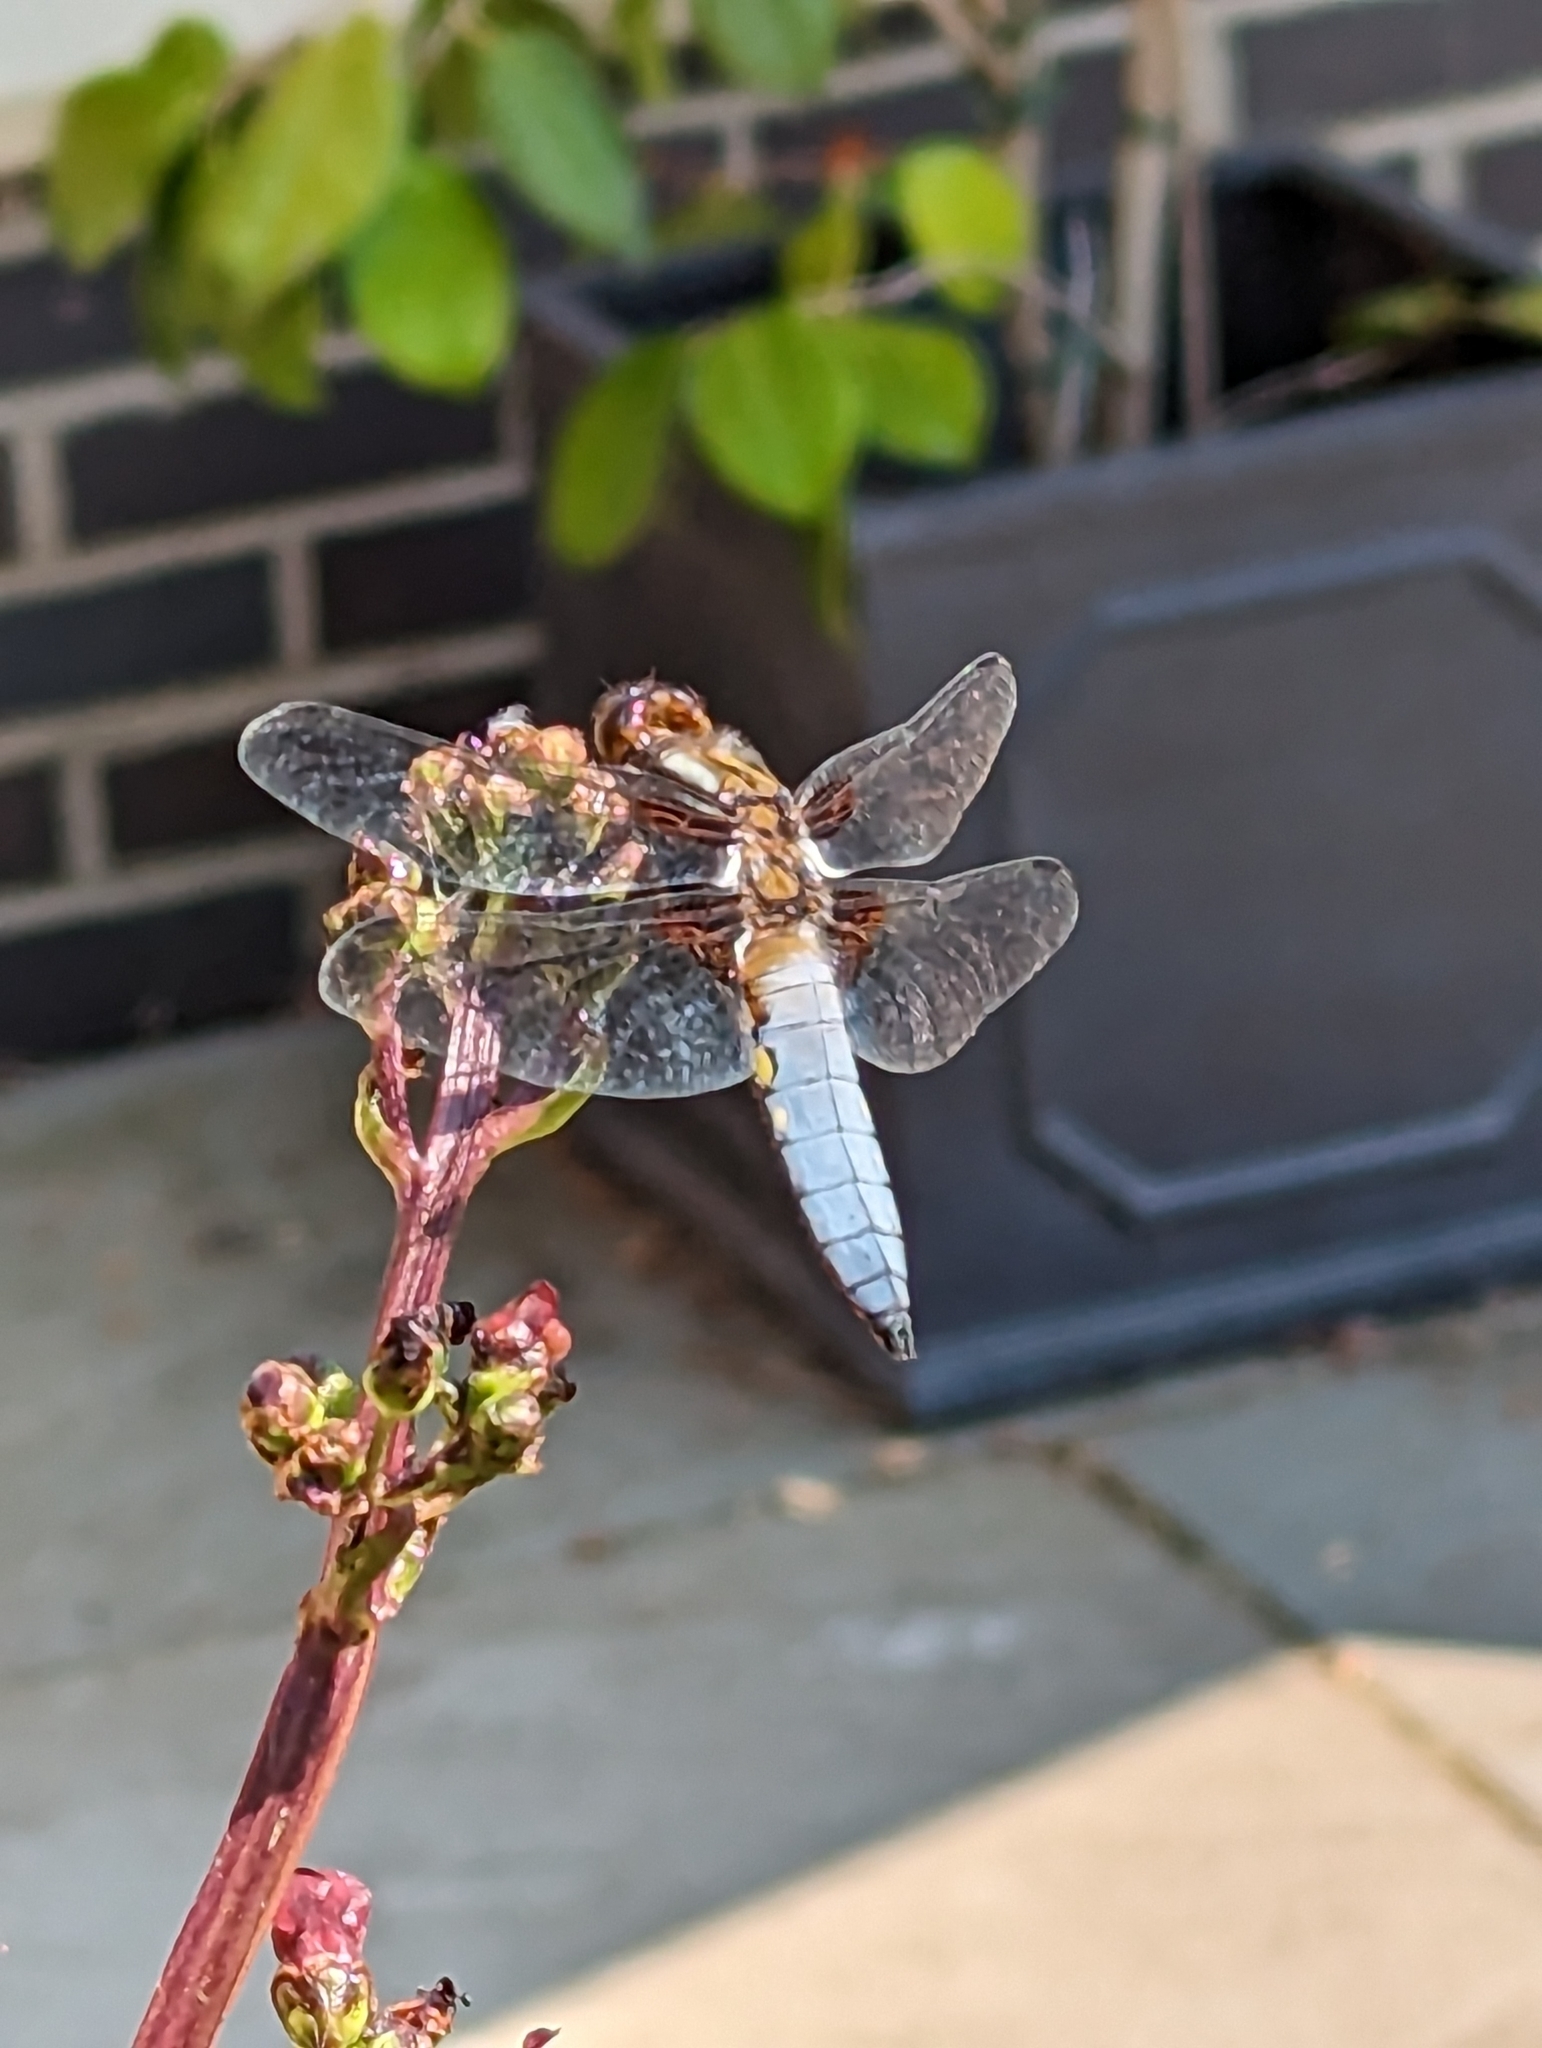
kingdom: Animalia
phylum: Arthropoda
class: Insecta
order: Odonata
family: Libellulidae
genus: Libellula
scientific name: Libellula depressa
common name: Broad-bodied chaser
